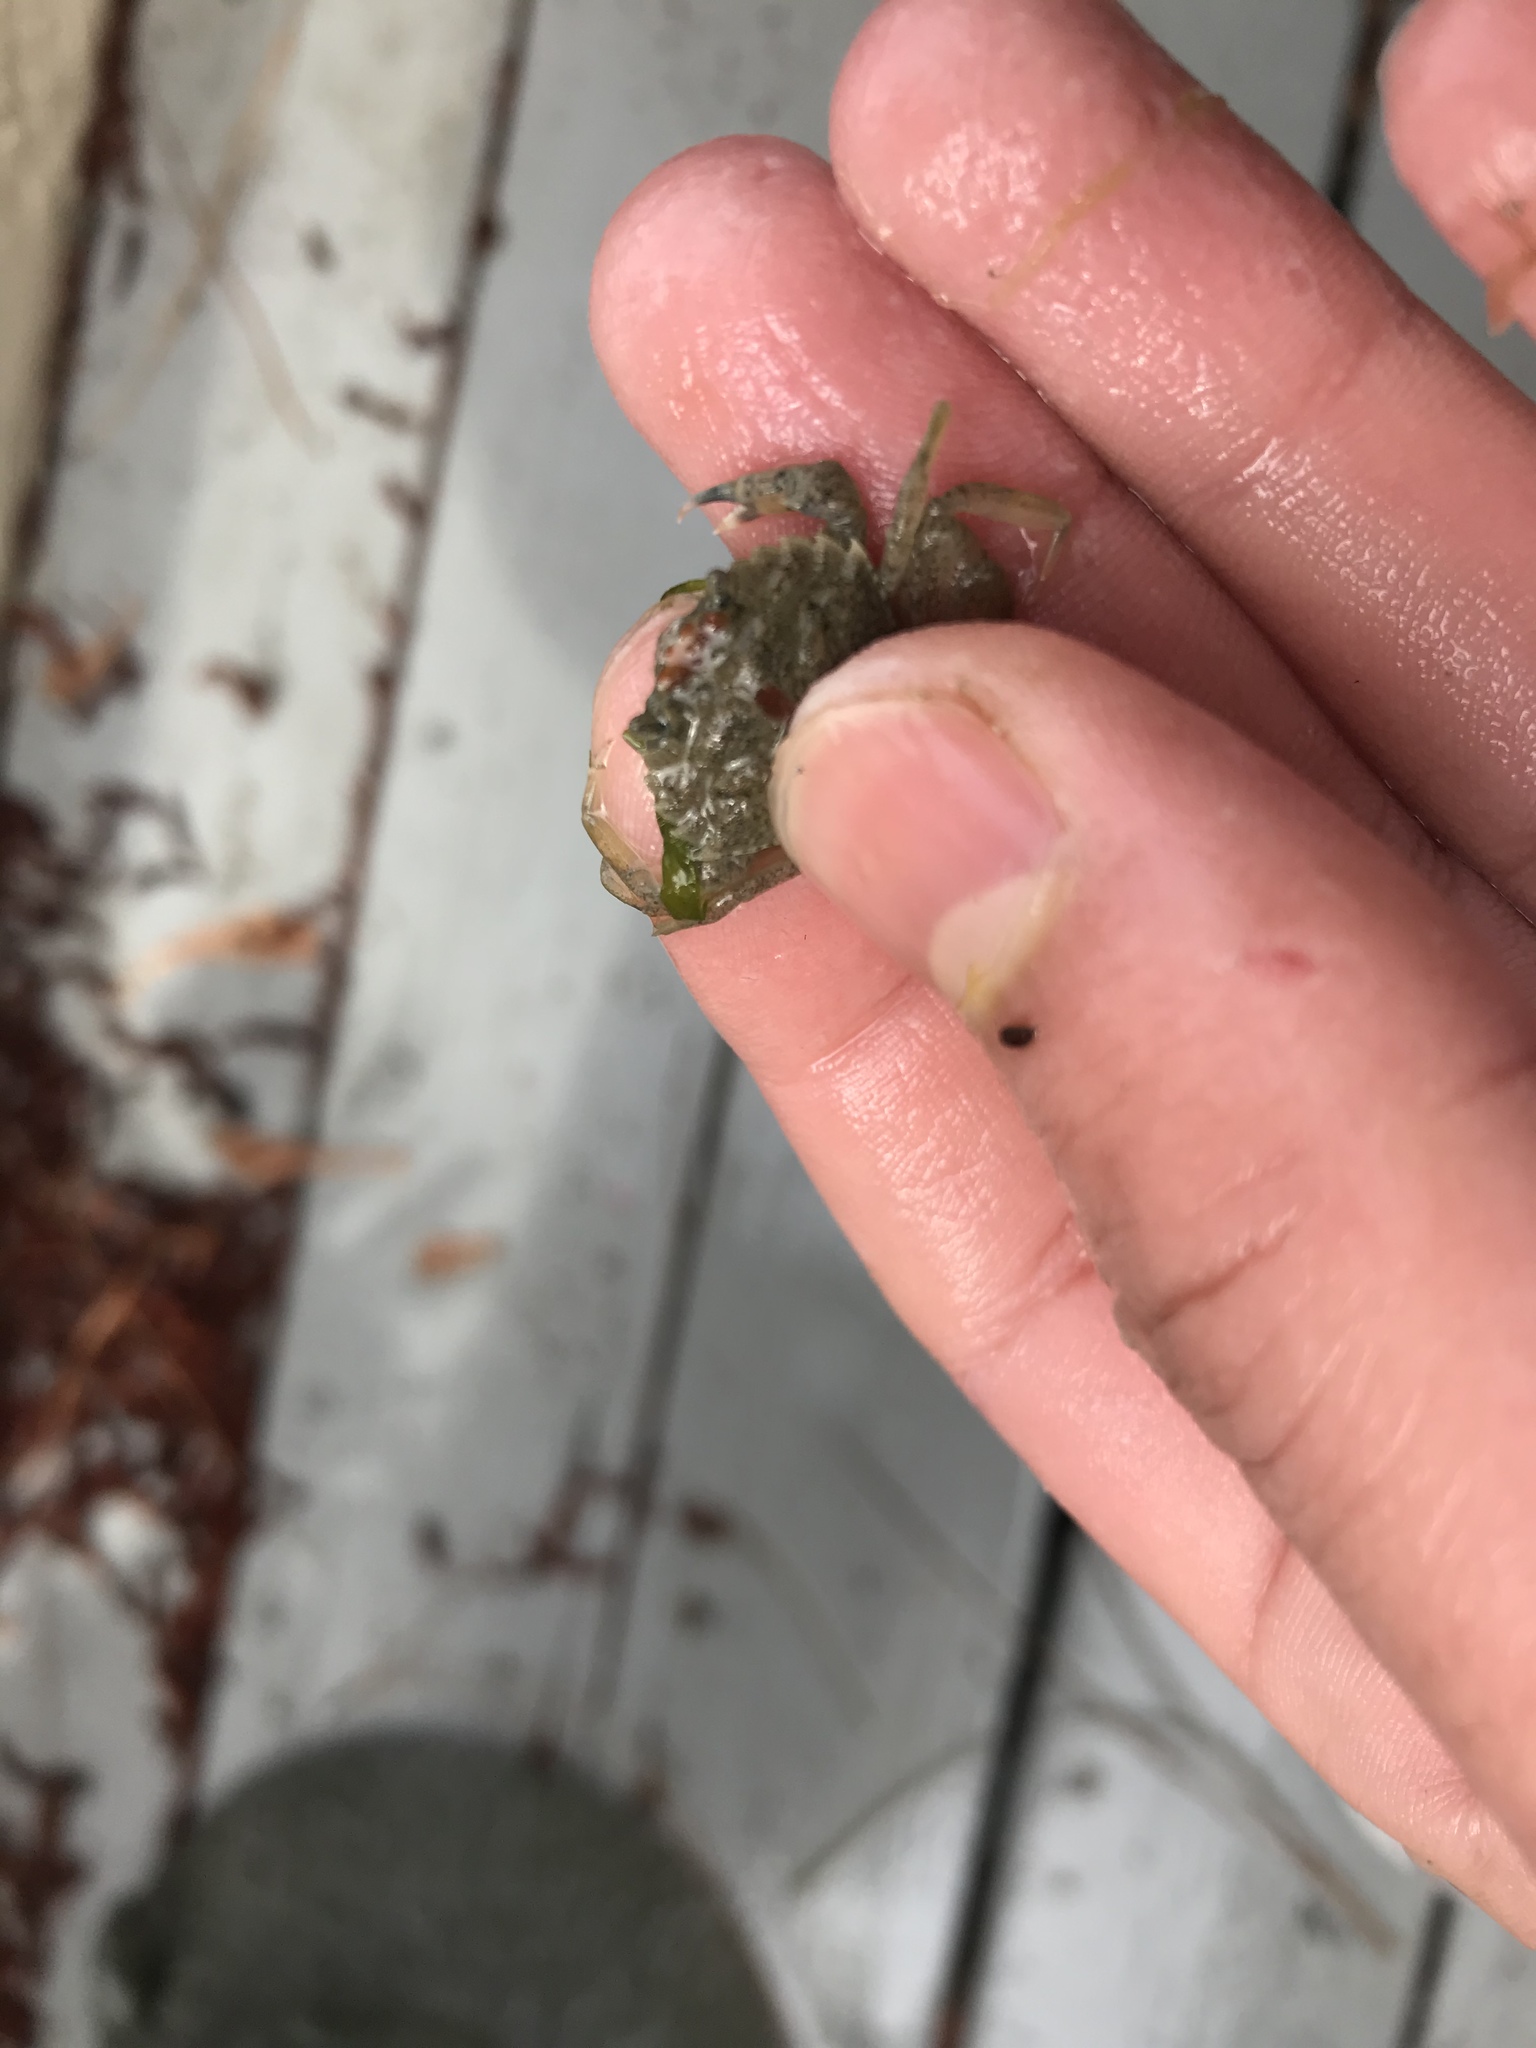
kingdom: Animalia
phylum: Arthropoda
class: Malacostraca
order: Decapoda
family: Carcinidae
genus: Carcinus
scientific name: Carcinus maenas
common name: European green crab
